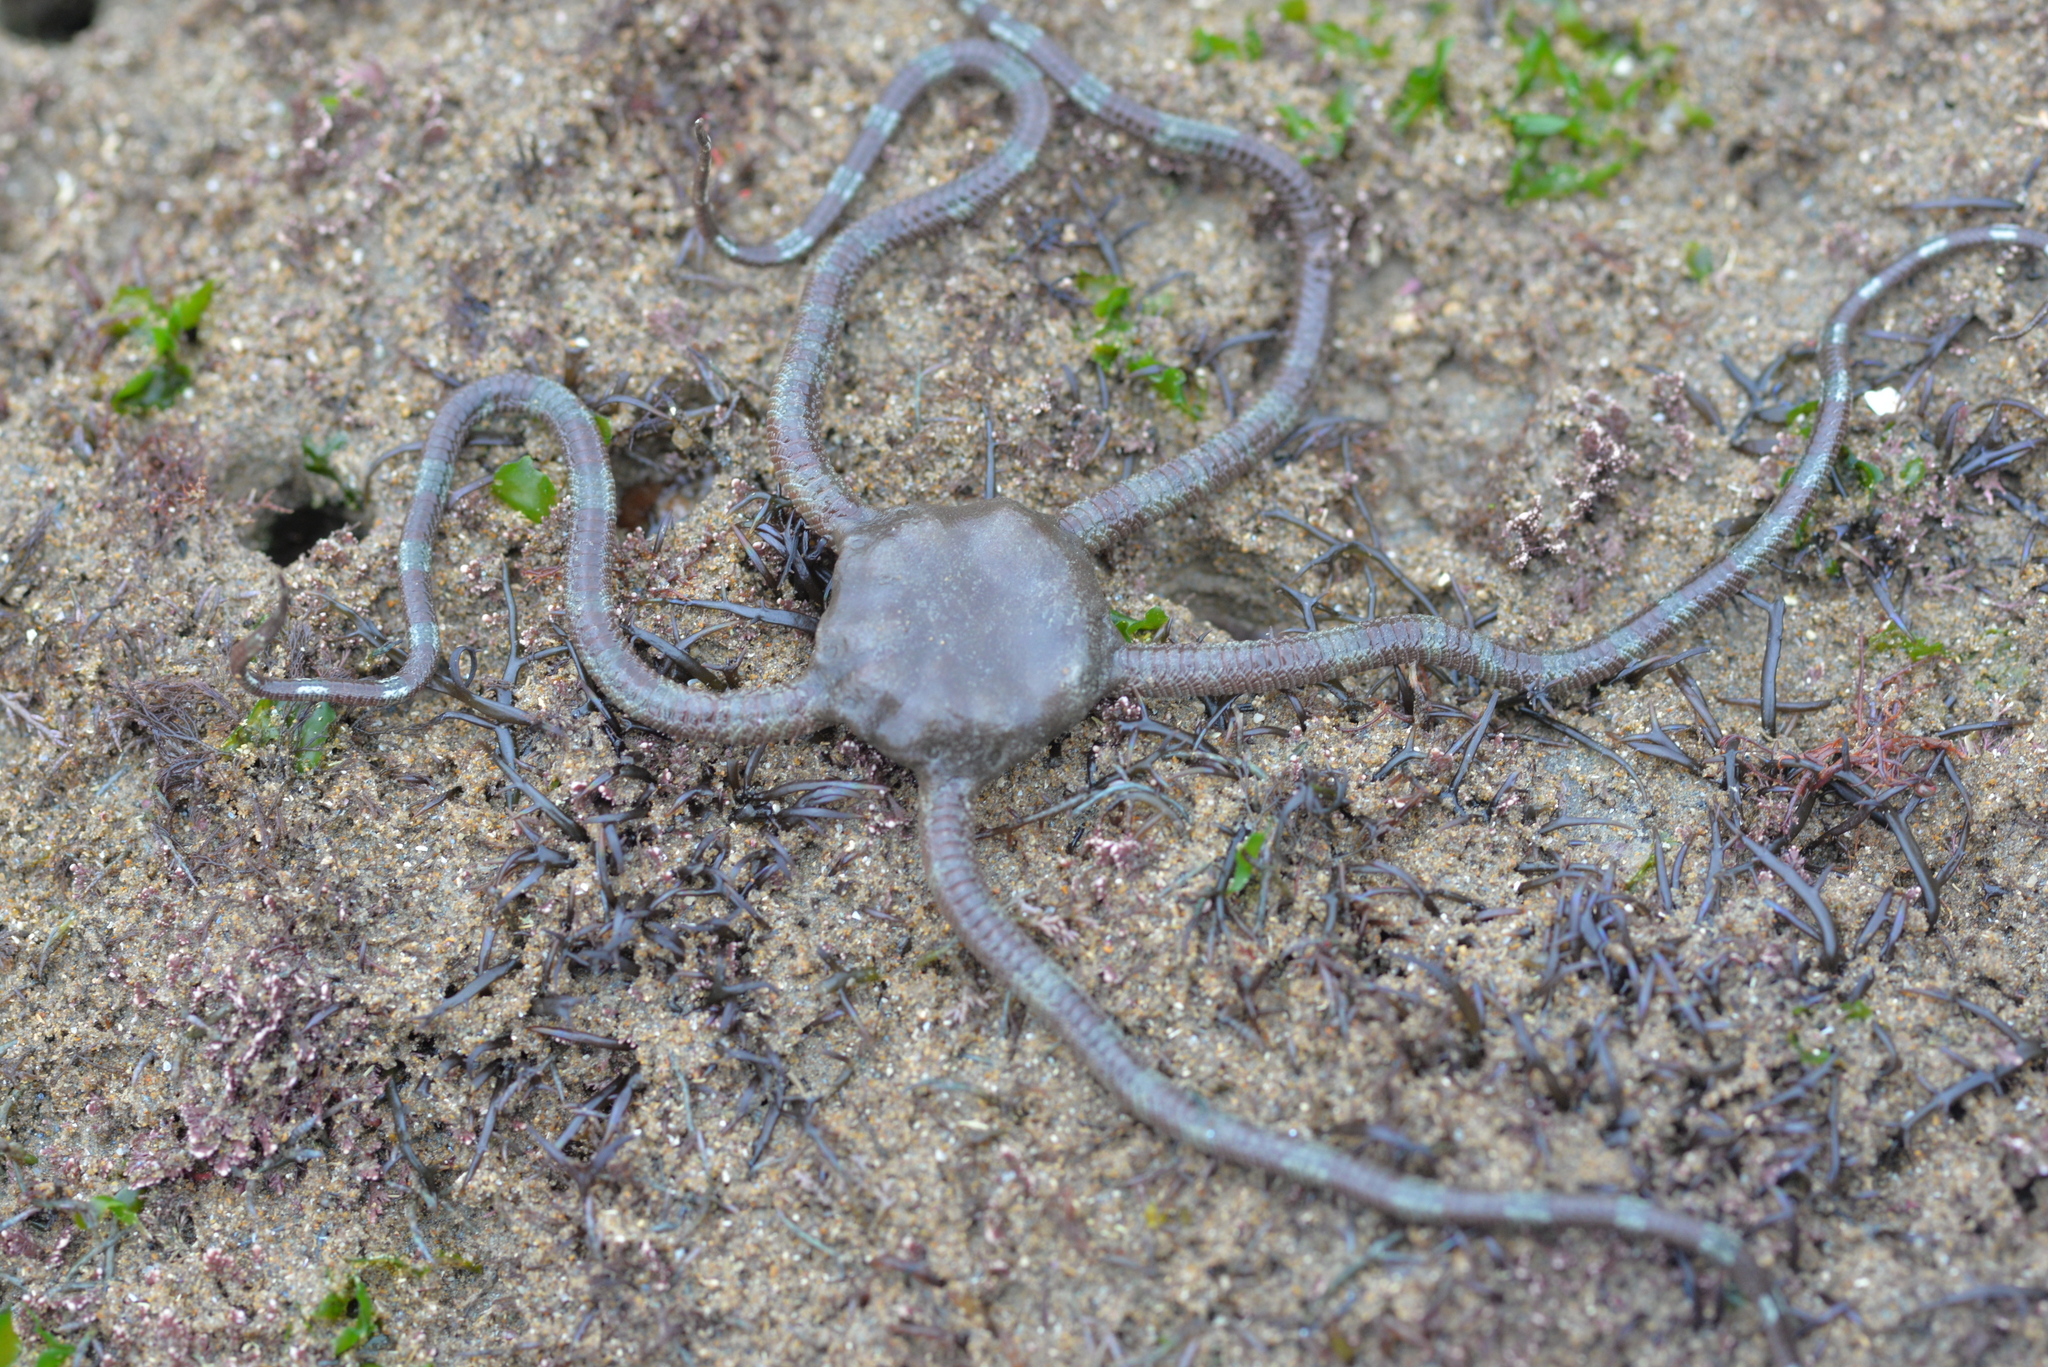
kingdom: Animalia
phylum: Echinodermata
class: Ophiuroidea
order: Ophiacanthida
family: Ophiodermatidae
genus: Ophioderma
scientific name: Ophioderma panamense
